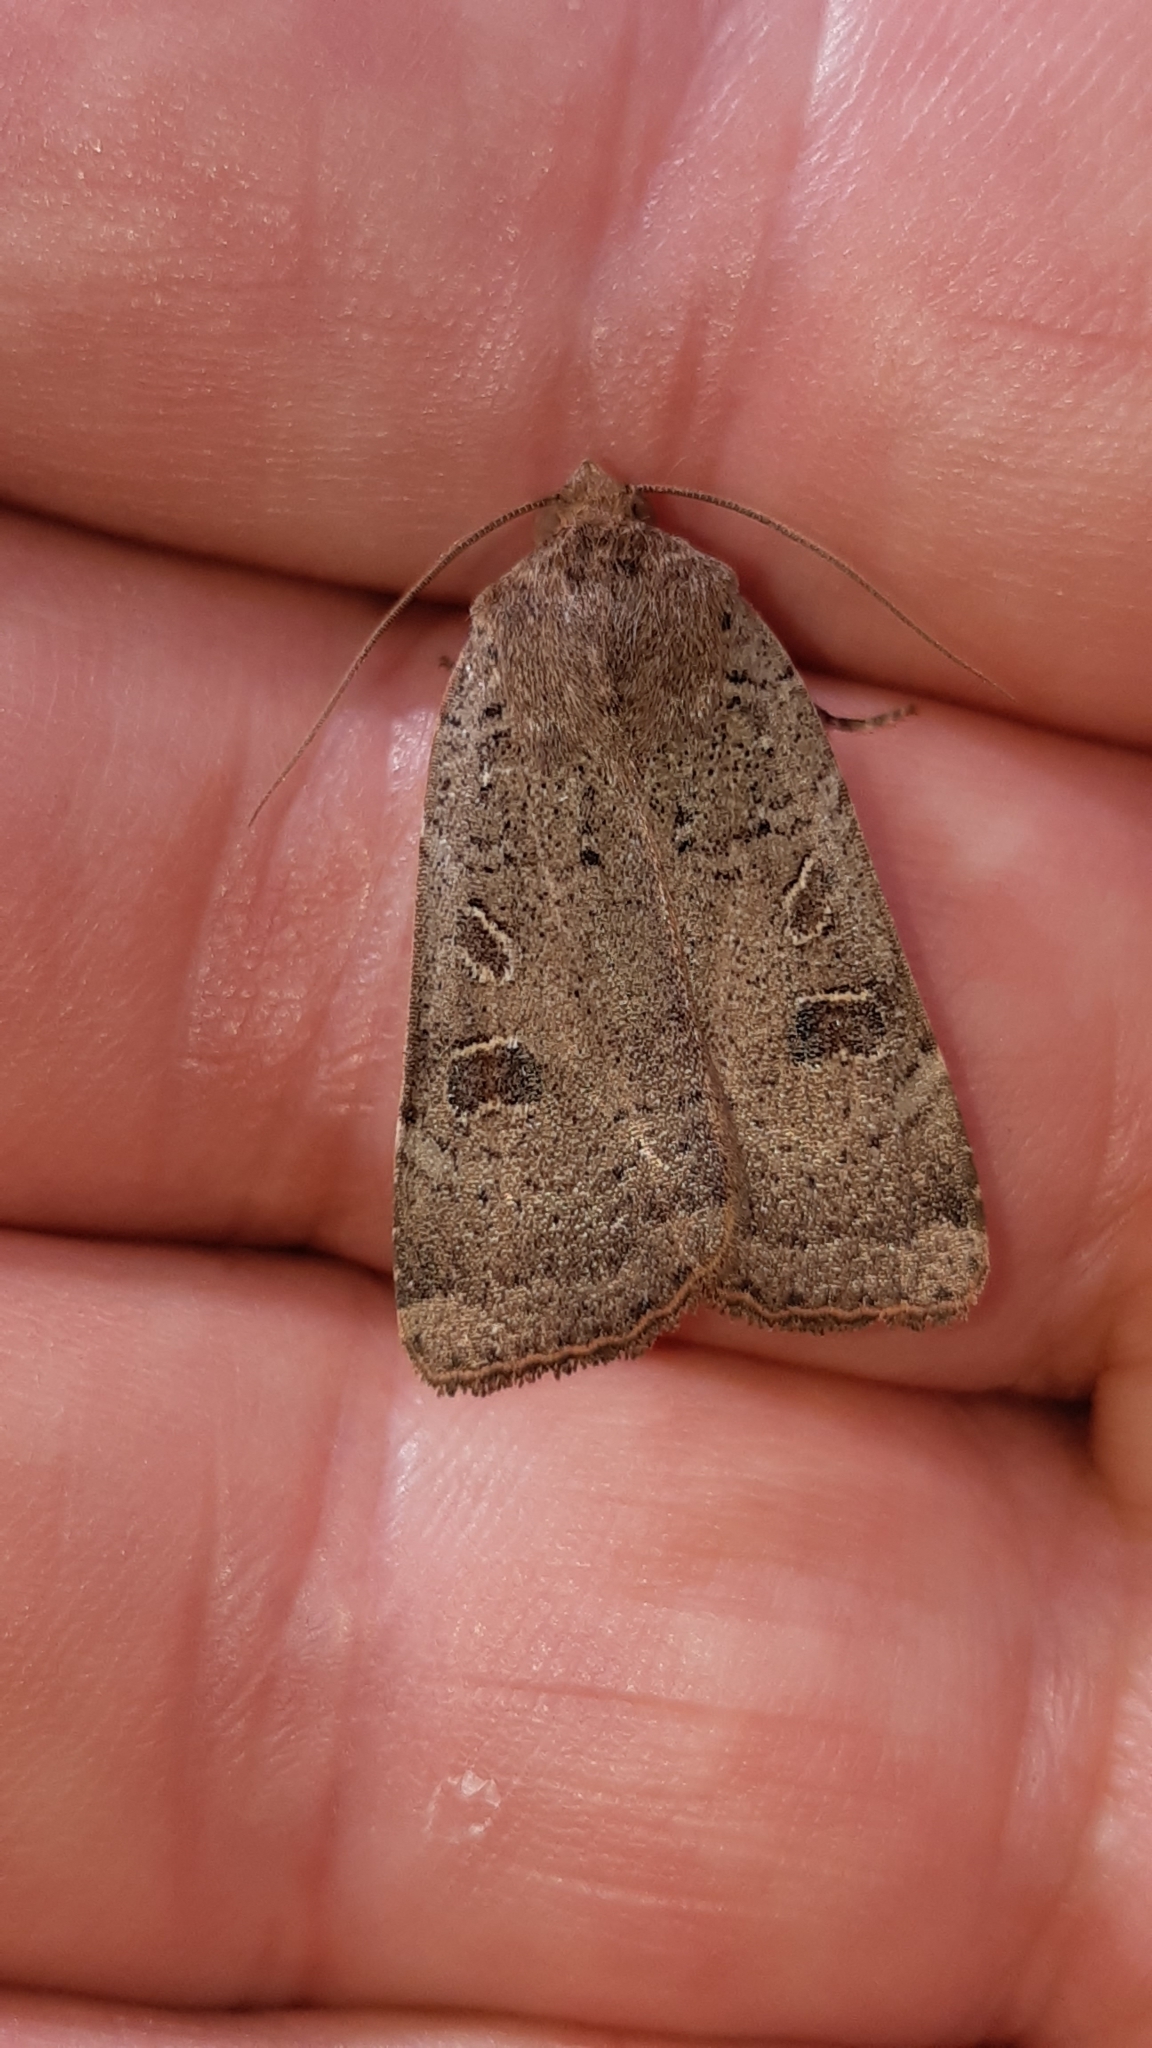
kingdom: Animalia
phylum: Arthropoda
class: Insecta
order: Lepidoptera
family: Noctuidae
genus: Noctua
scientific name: Noctua comes
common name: Lesser yellow underwing
